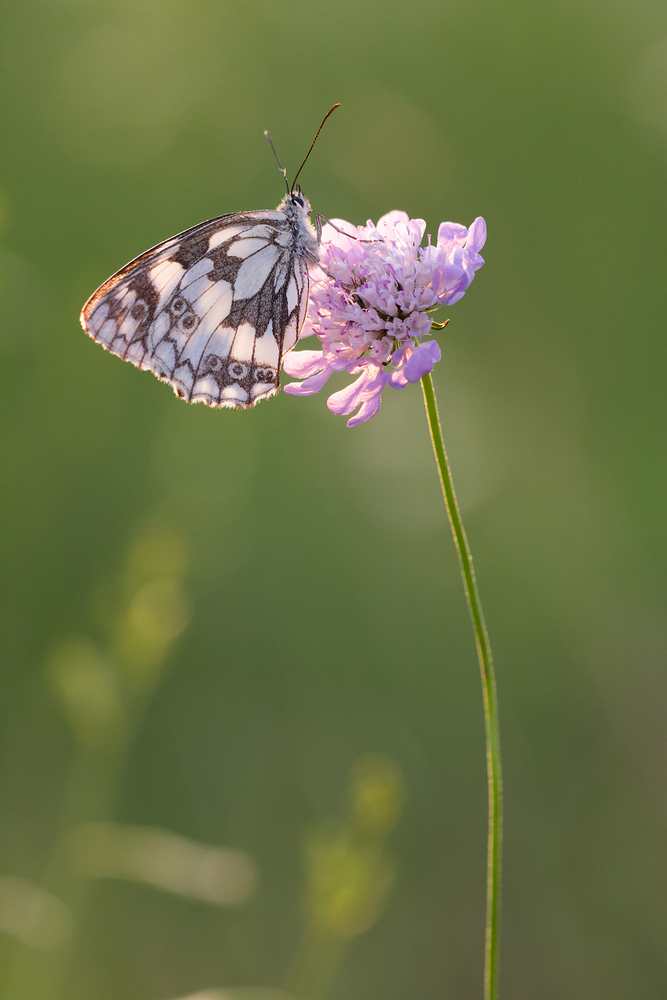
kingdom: Animalia
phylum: Arthropoda
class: Insecta
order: Lepidoptera
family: Nymphalidae
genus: Melanargia
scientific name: Melanargia galathea
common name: Marbled white
